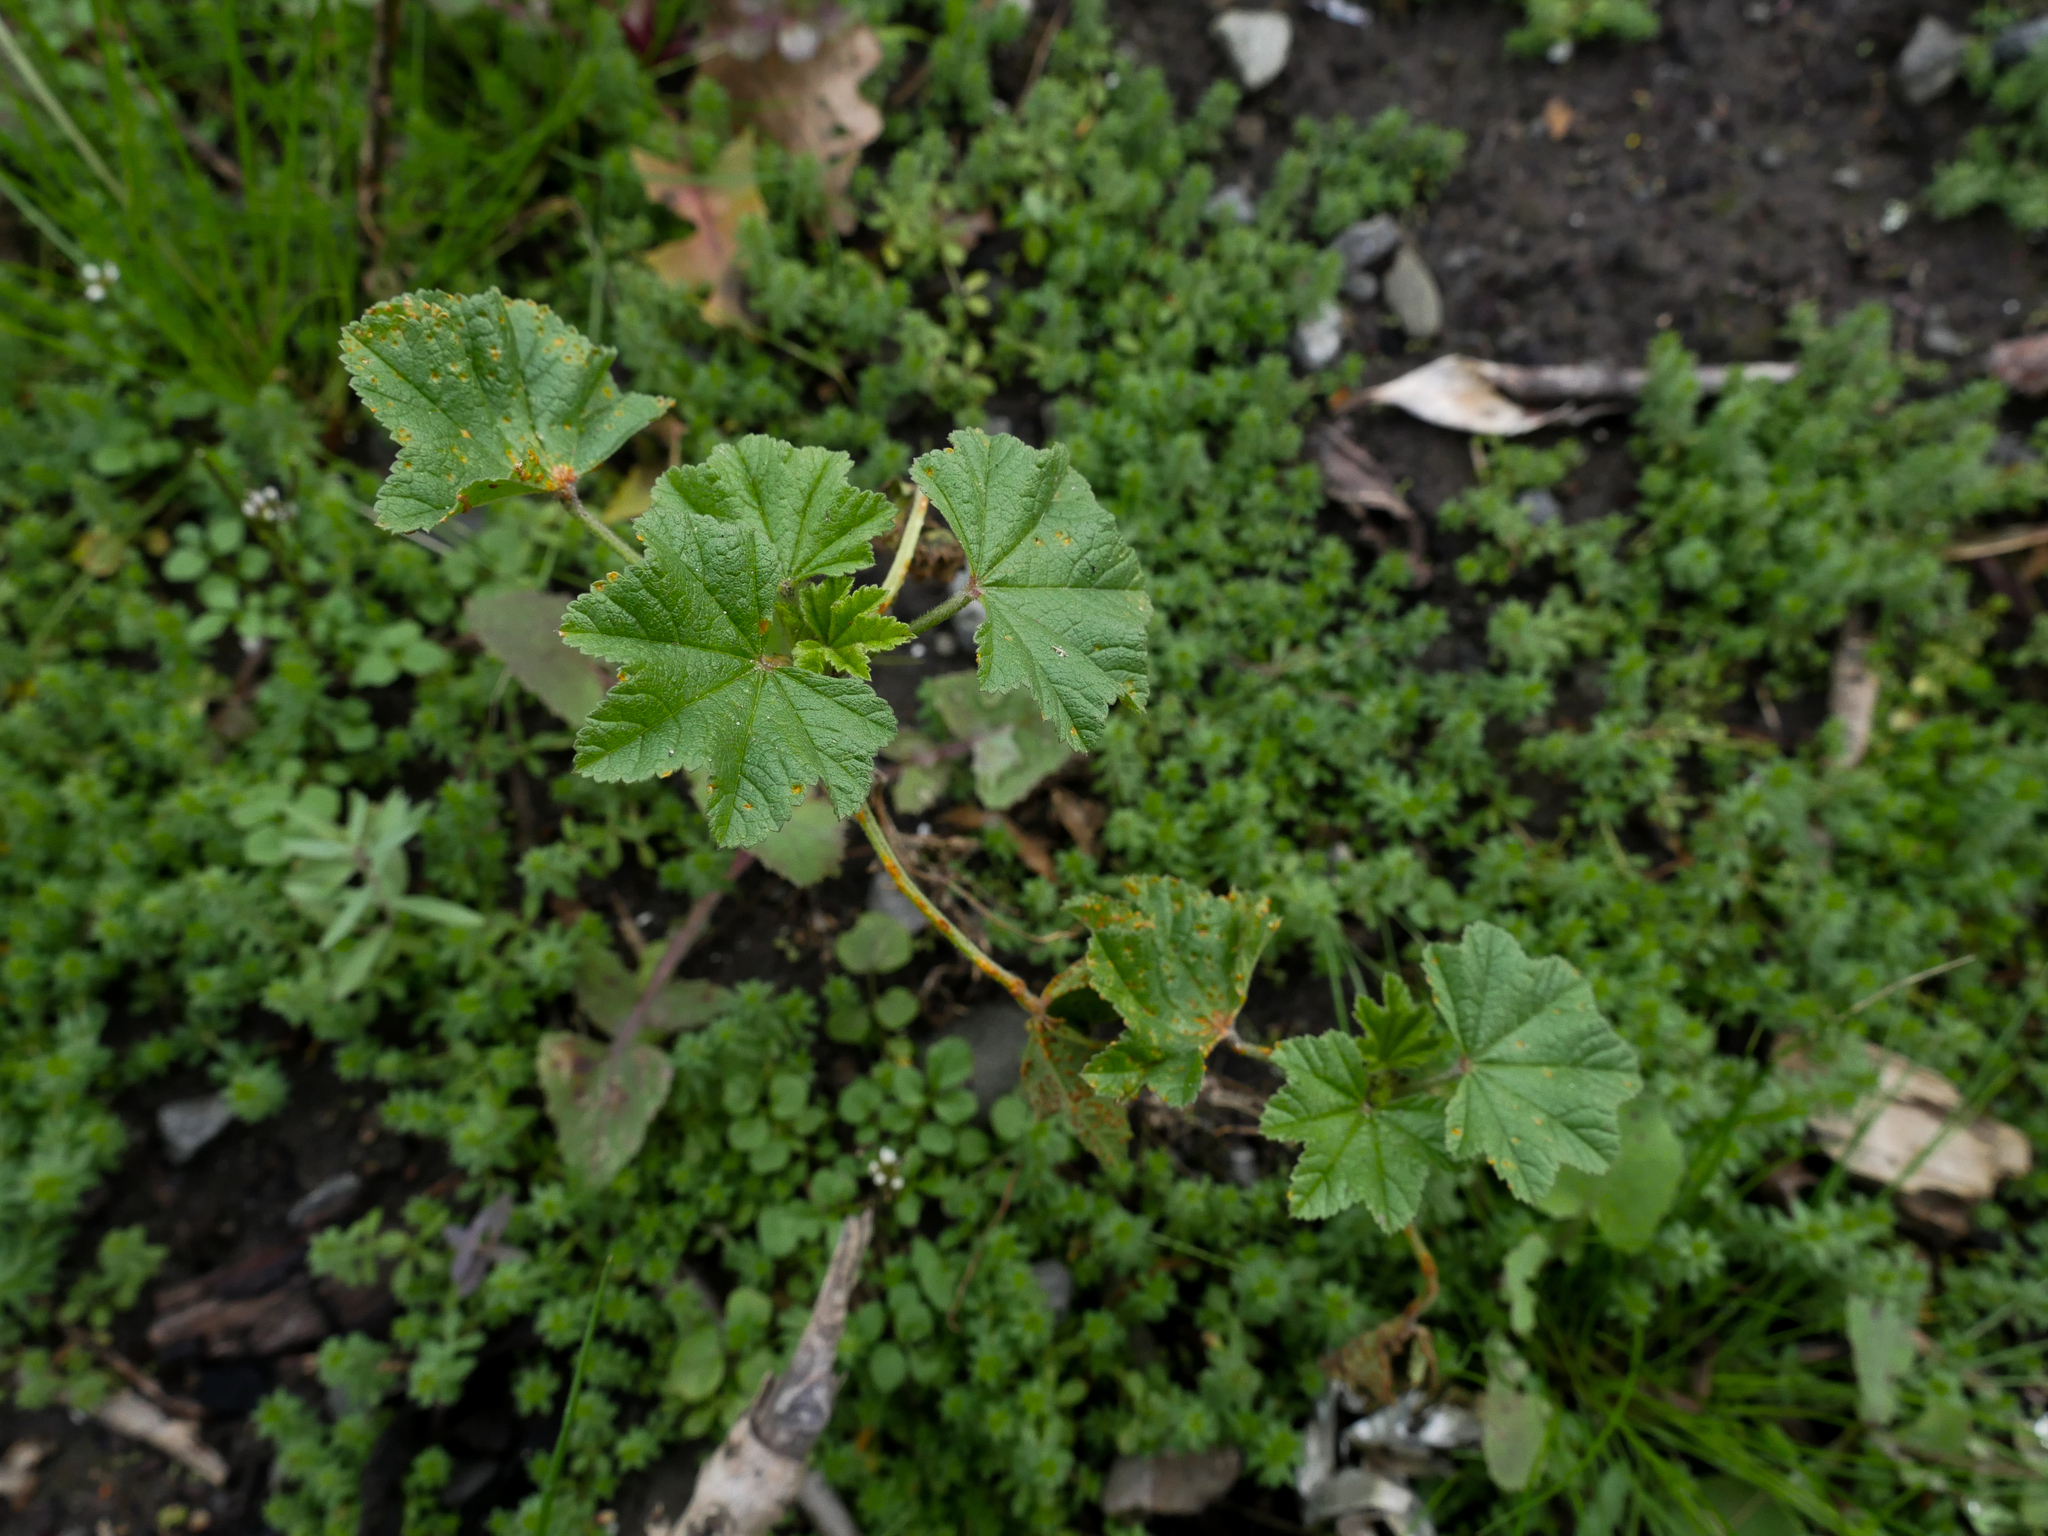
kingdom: Plantae
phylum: Tracheophyta
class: Magnoliopsida
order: Malvales
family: Malvaceae
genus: Malva
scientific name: Malva sylvestris
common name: Common mallow
